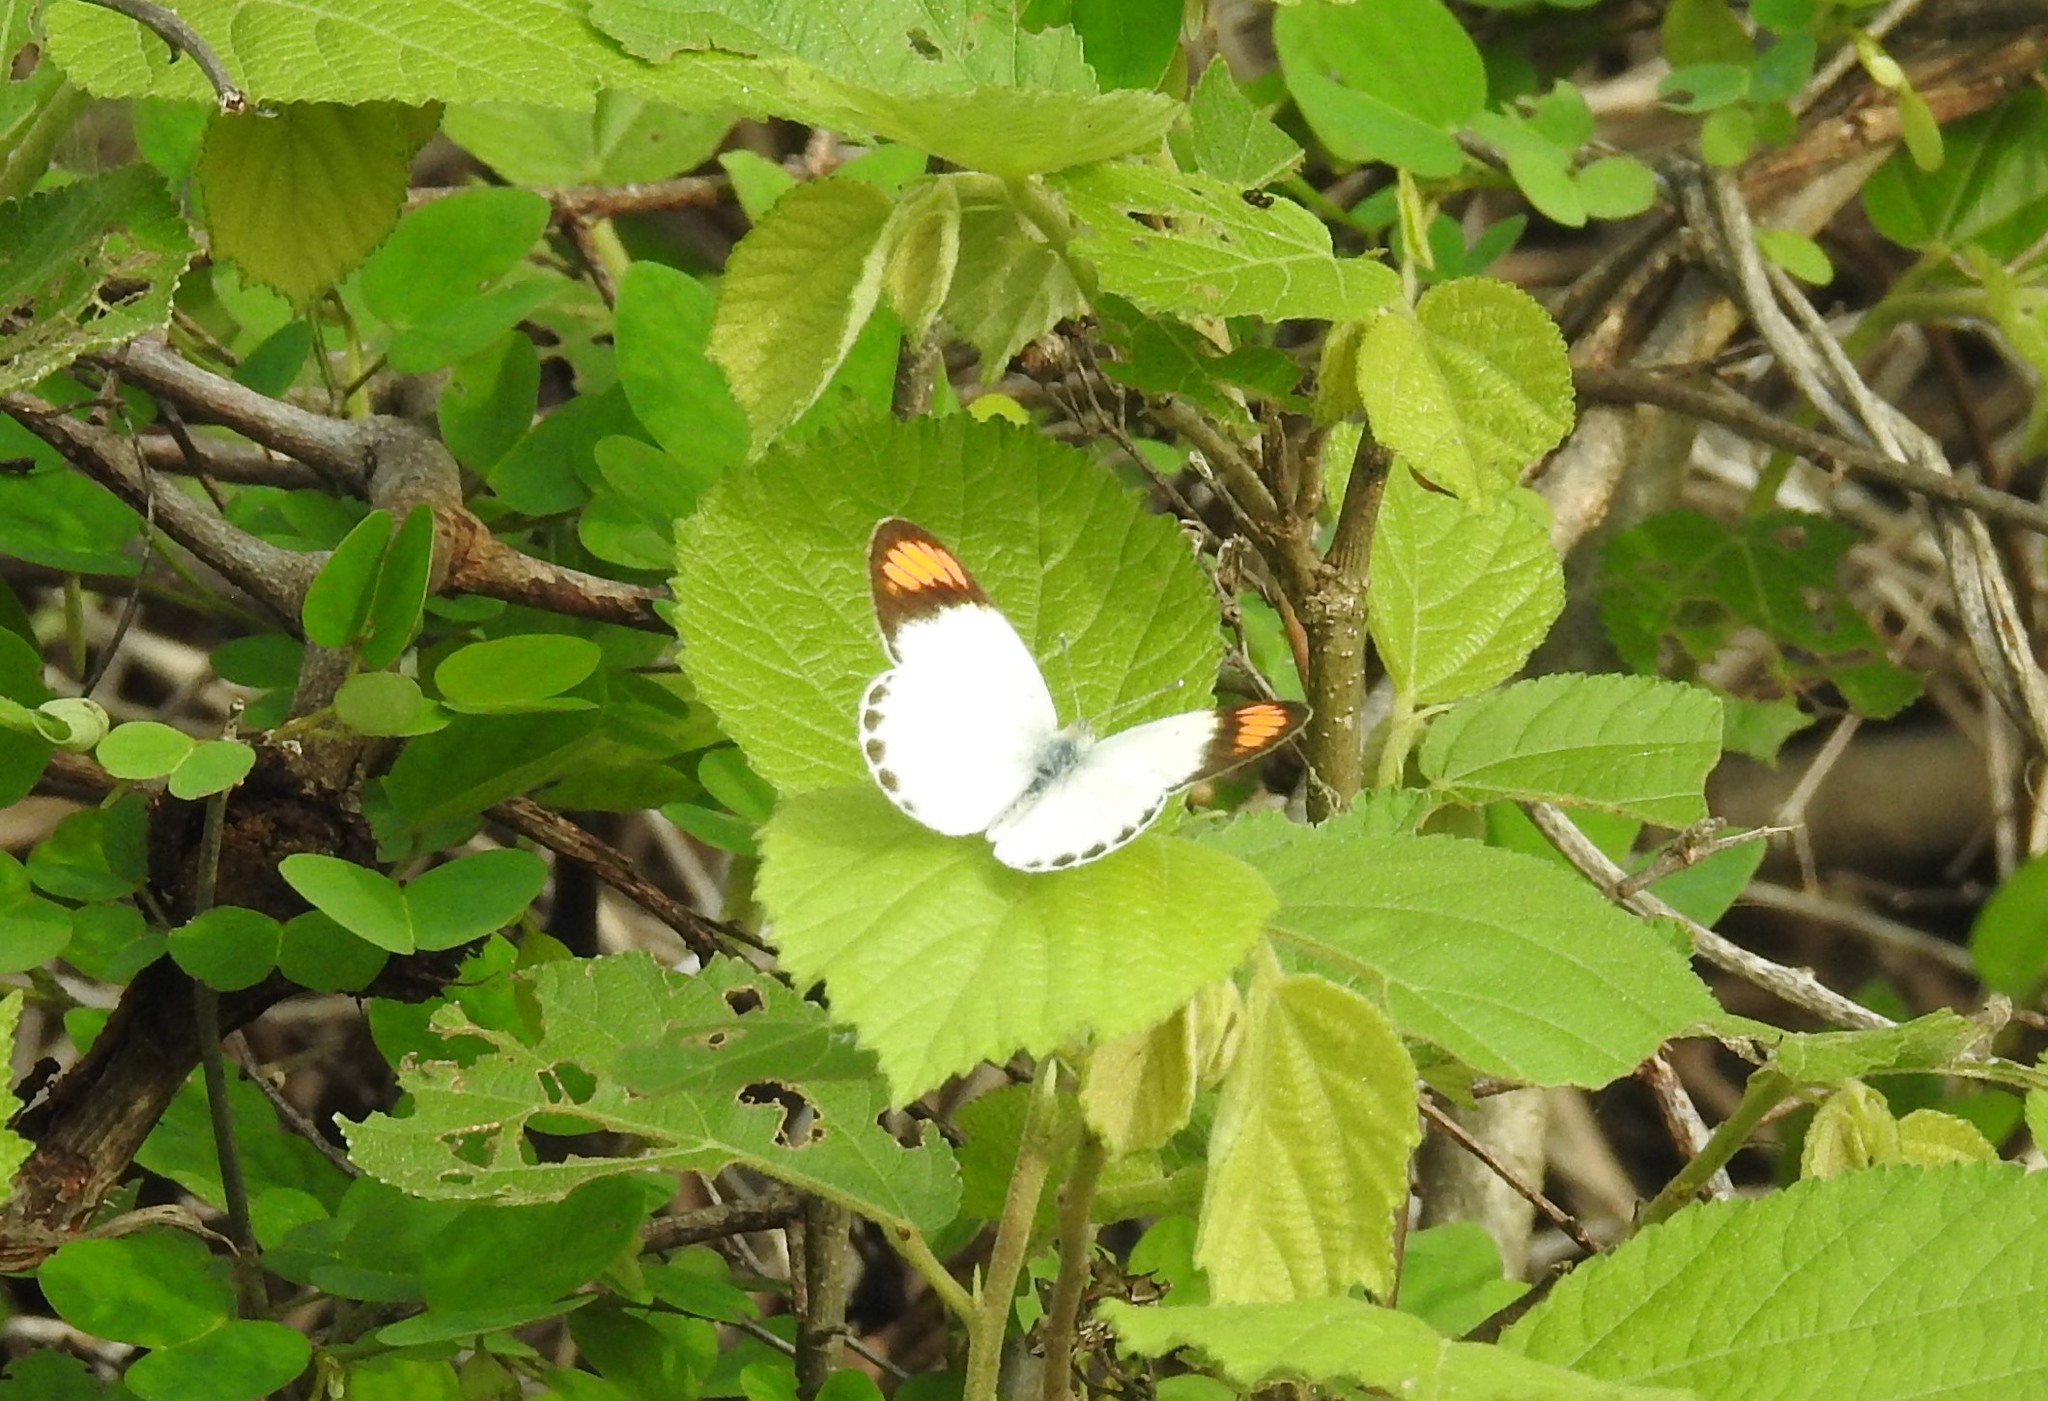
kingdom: Animalia
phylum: Arthropoda
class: Insecta
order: Lepidoptera
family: Pieridae
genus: Colotis
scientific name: Colotis etrida
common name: Little orange tip
